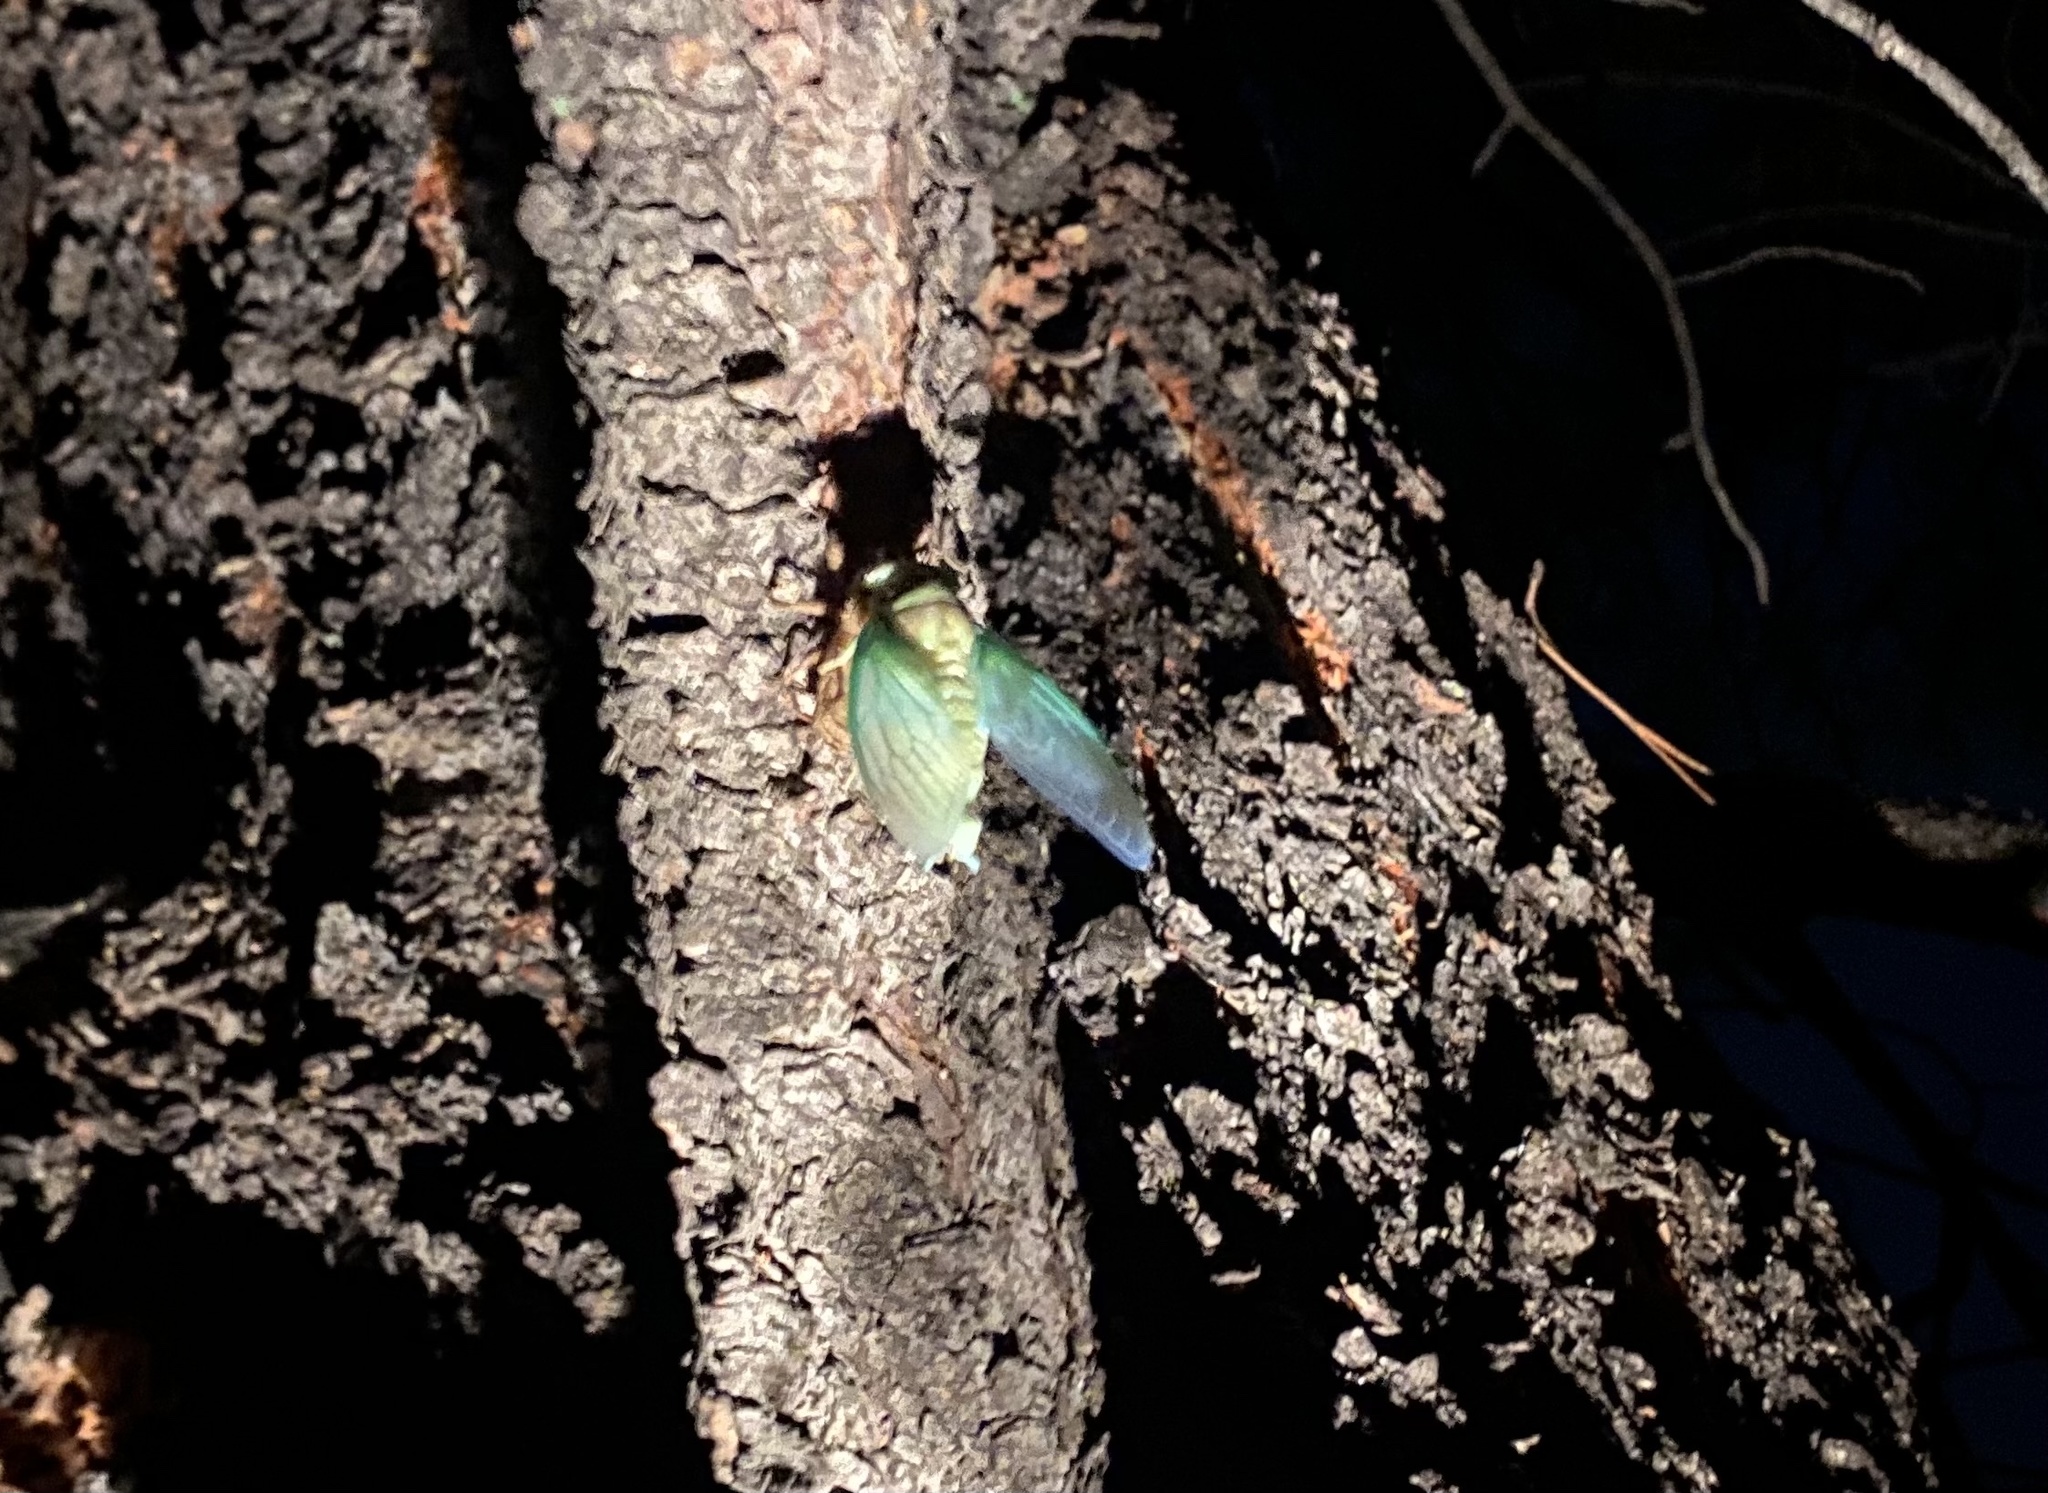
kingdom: Animalia
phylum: Arthropoda
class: Insecta
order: Hemiptera
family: Cicadidae
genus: Megatibicen
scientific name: Megatibicen cultriformis
